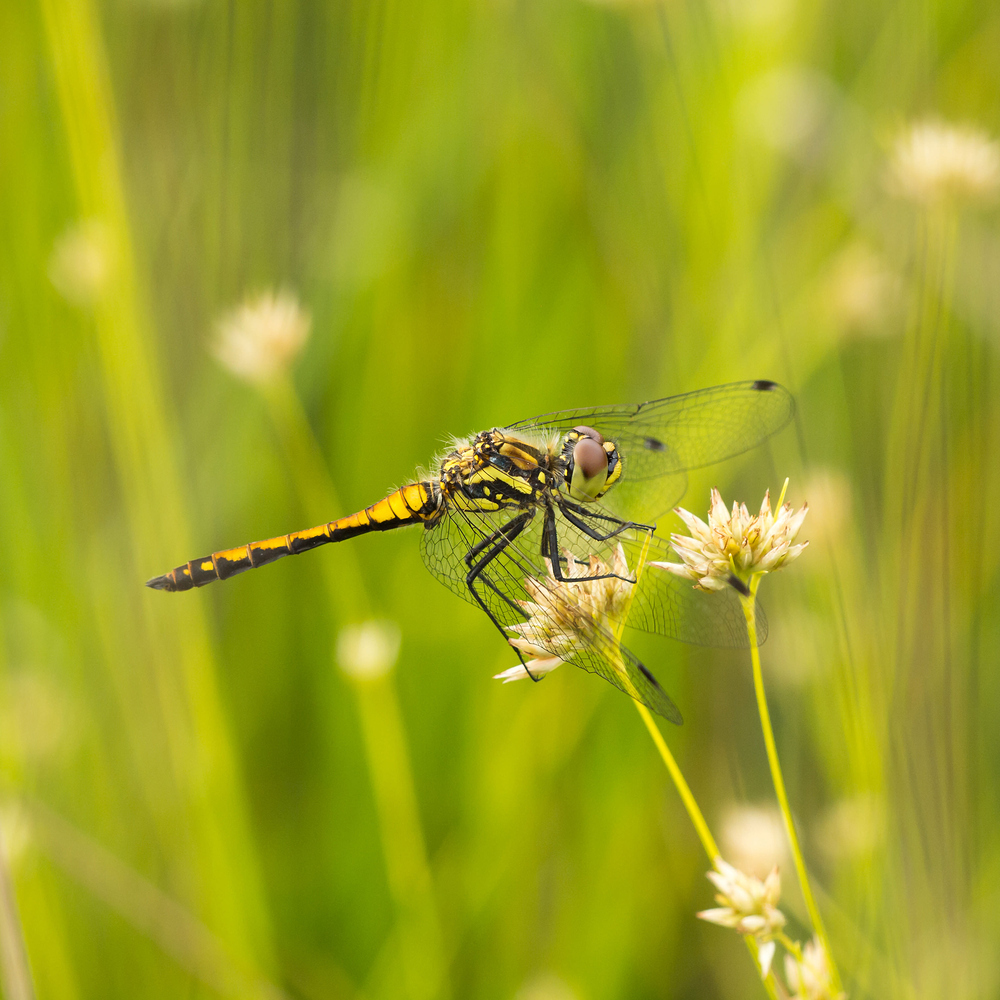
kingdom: Animalia
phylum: Arthropoda
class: Insecta
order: Odonata
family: Libellulidae
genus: Sympetrum
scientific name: Sympetrum danae
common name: Black darter
